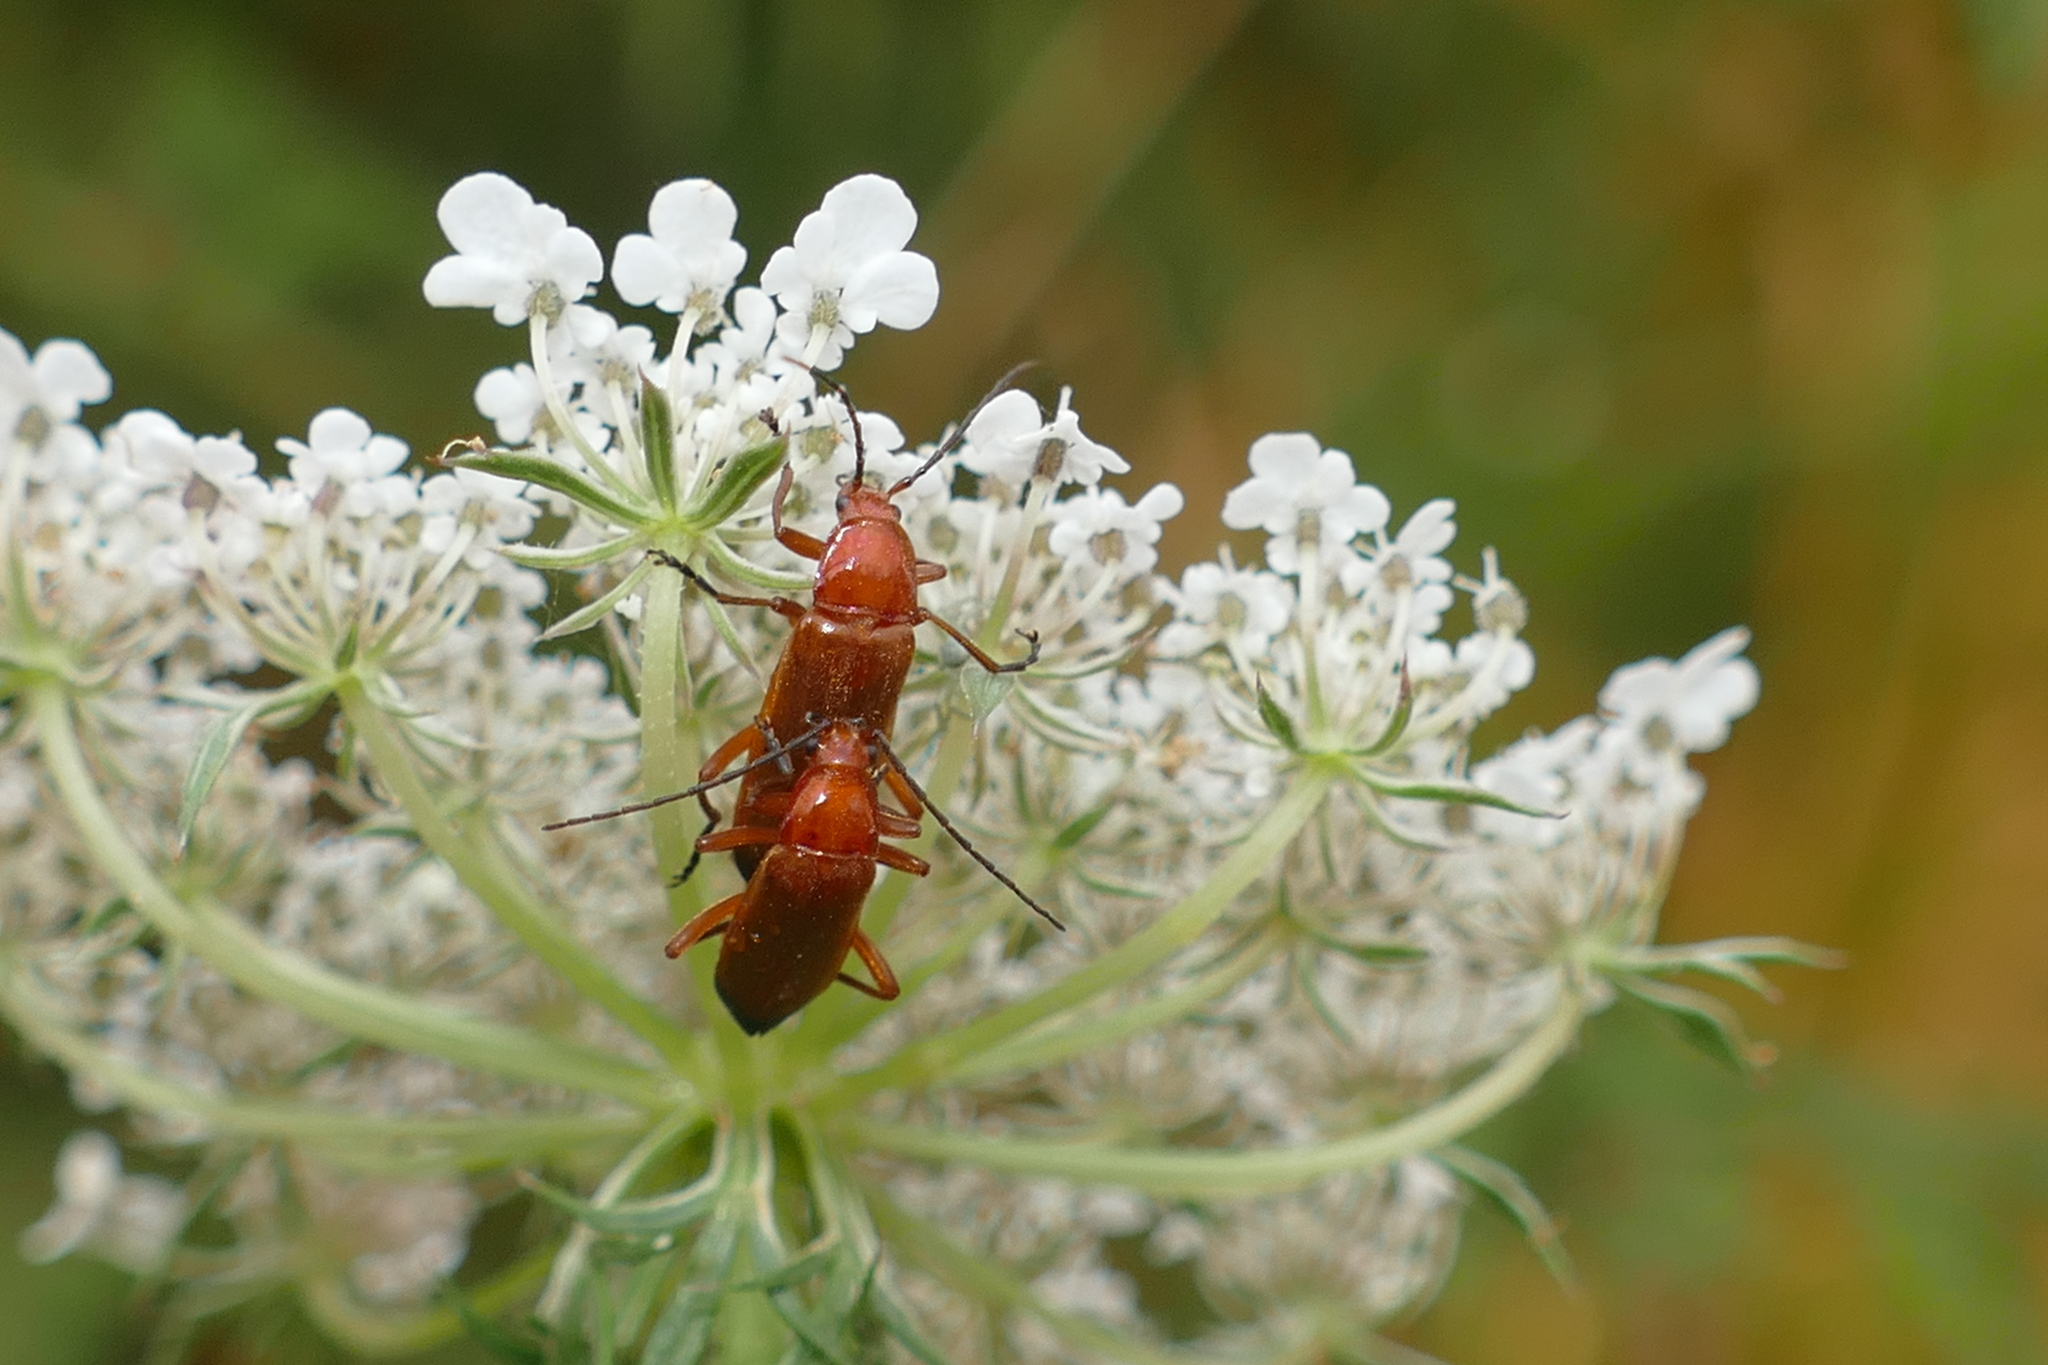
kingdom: Animalia
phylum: Arthropoda
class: Insecta
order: Coleoptera
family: Cantharidae
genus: Rhagonycha
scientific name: Rhagonycha fulva
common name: Common red soldier beetle
